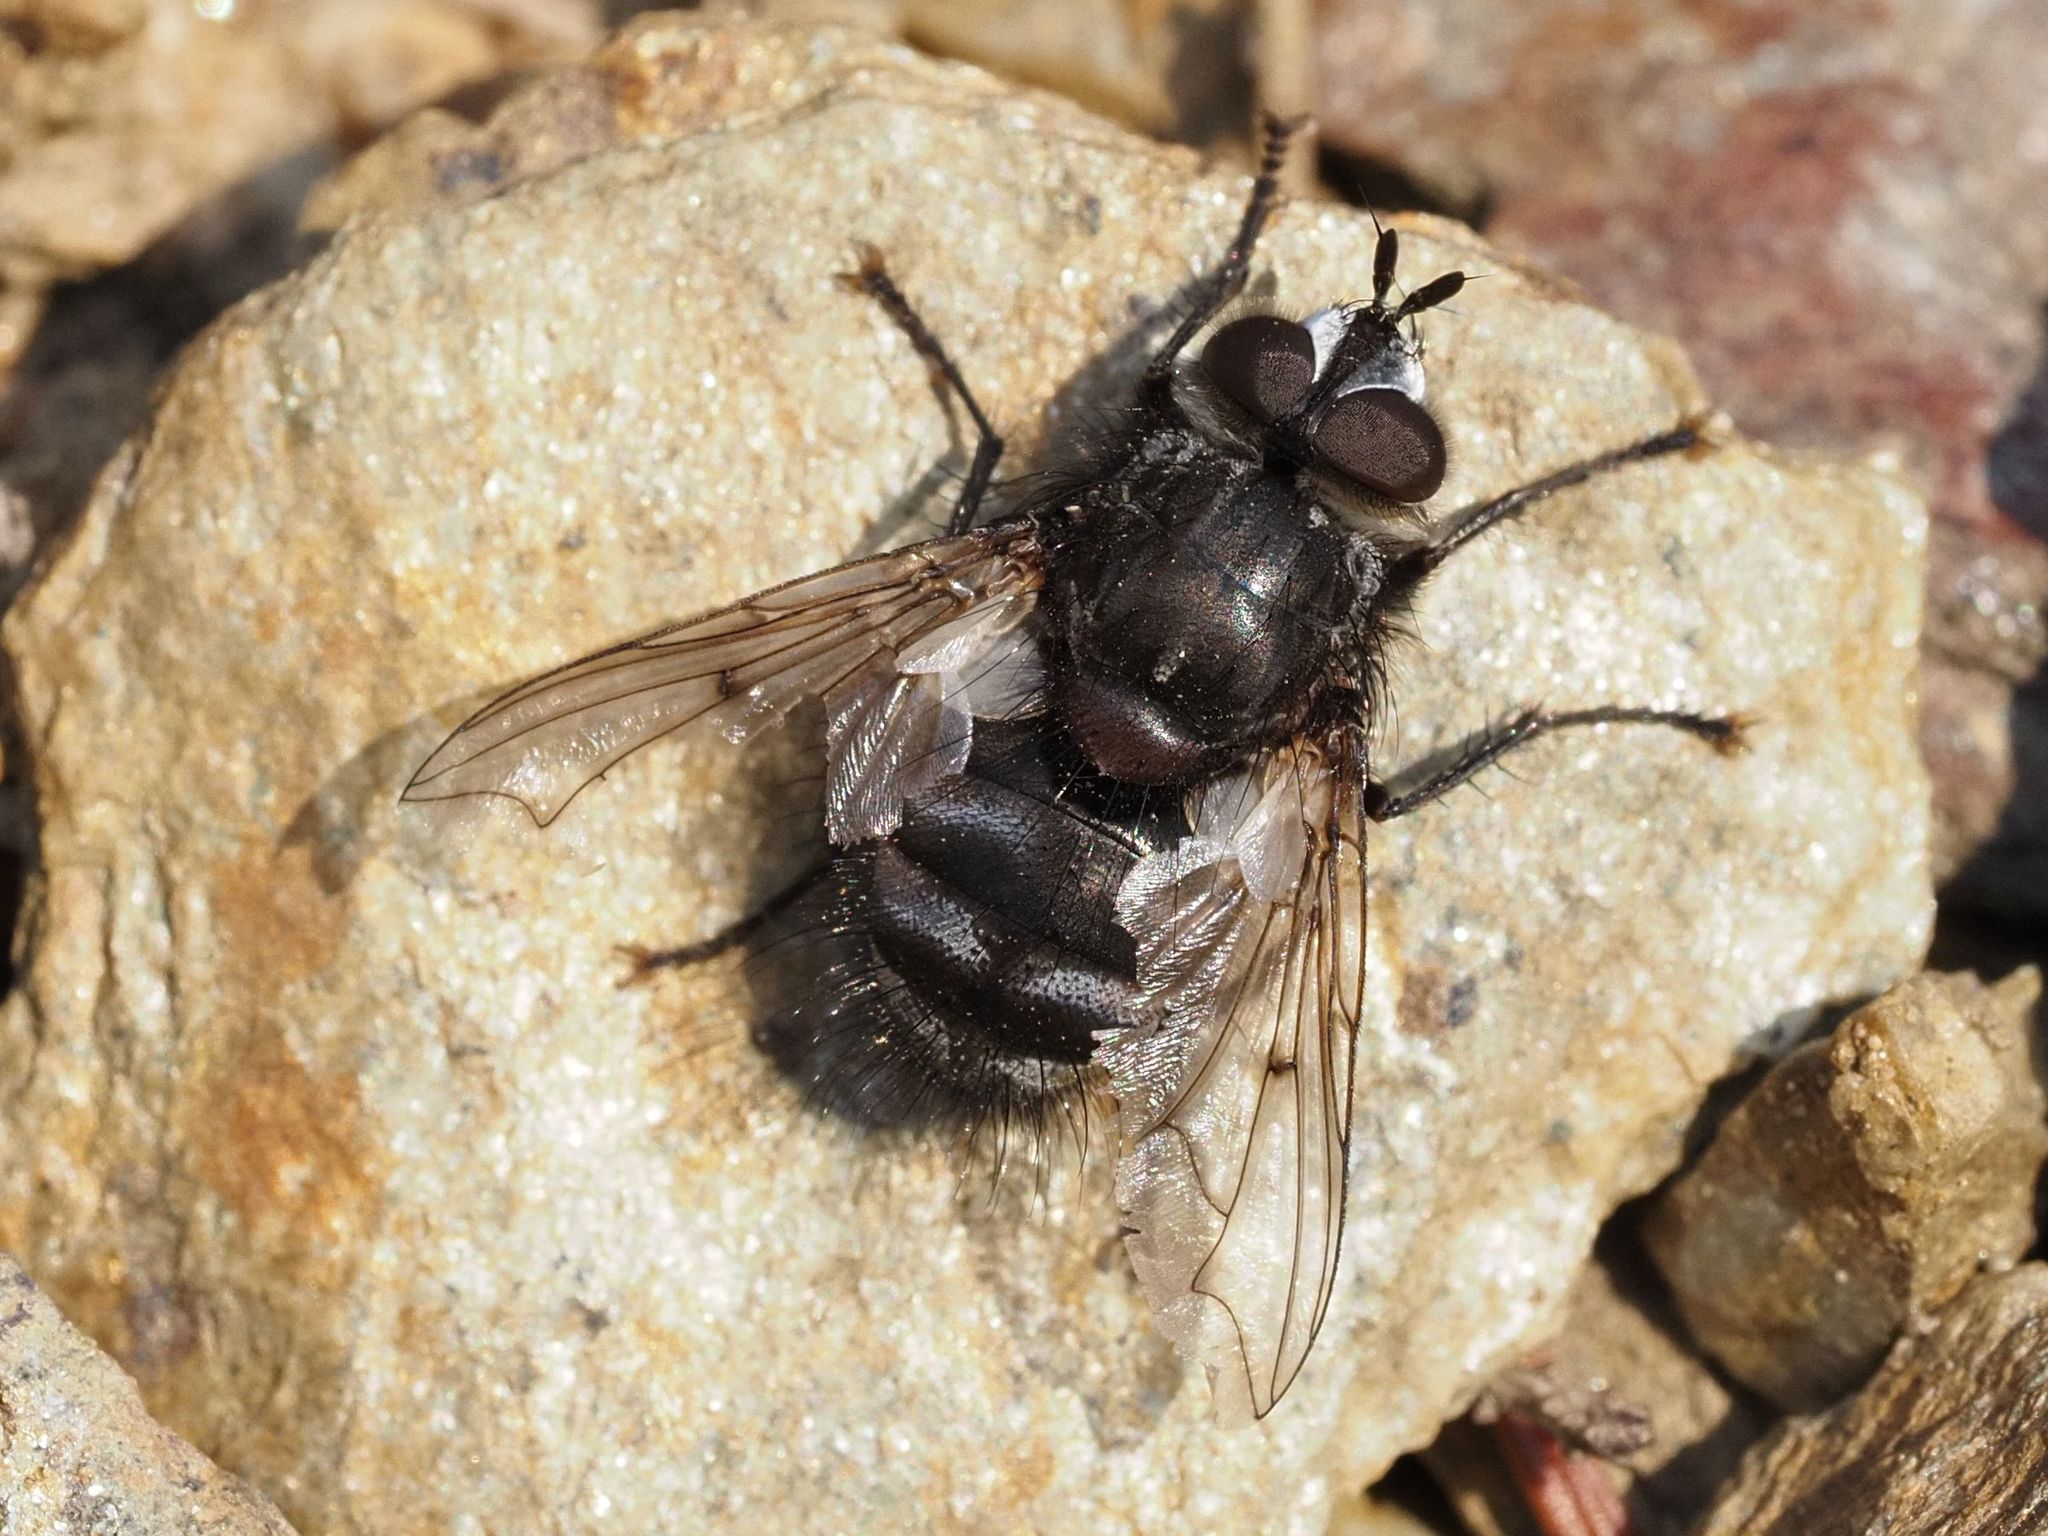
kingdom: Animalia
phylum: Arthropoda
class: Insecta
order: Diptera
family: Tachinidae
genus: Panzeria
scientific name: Panzeria puparum
